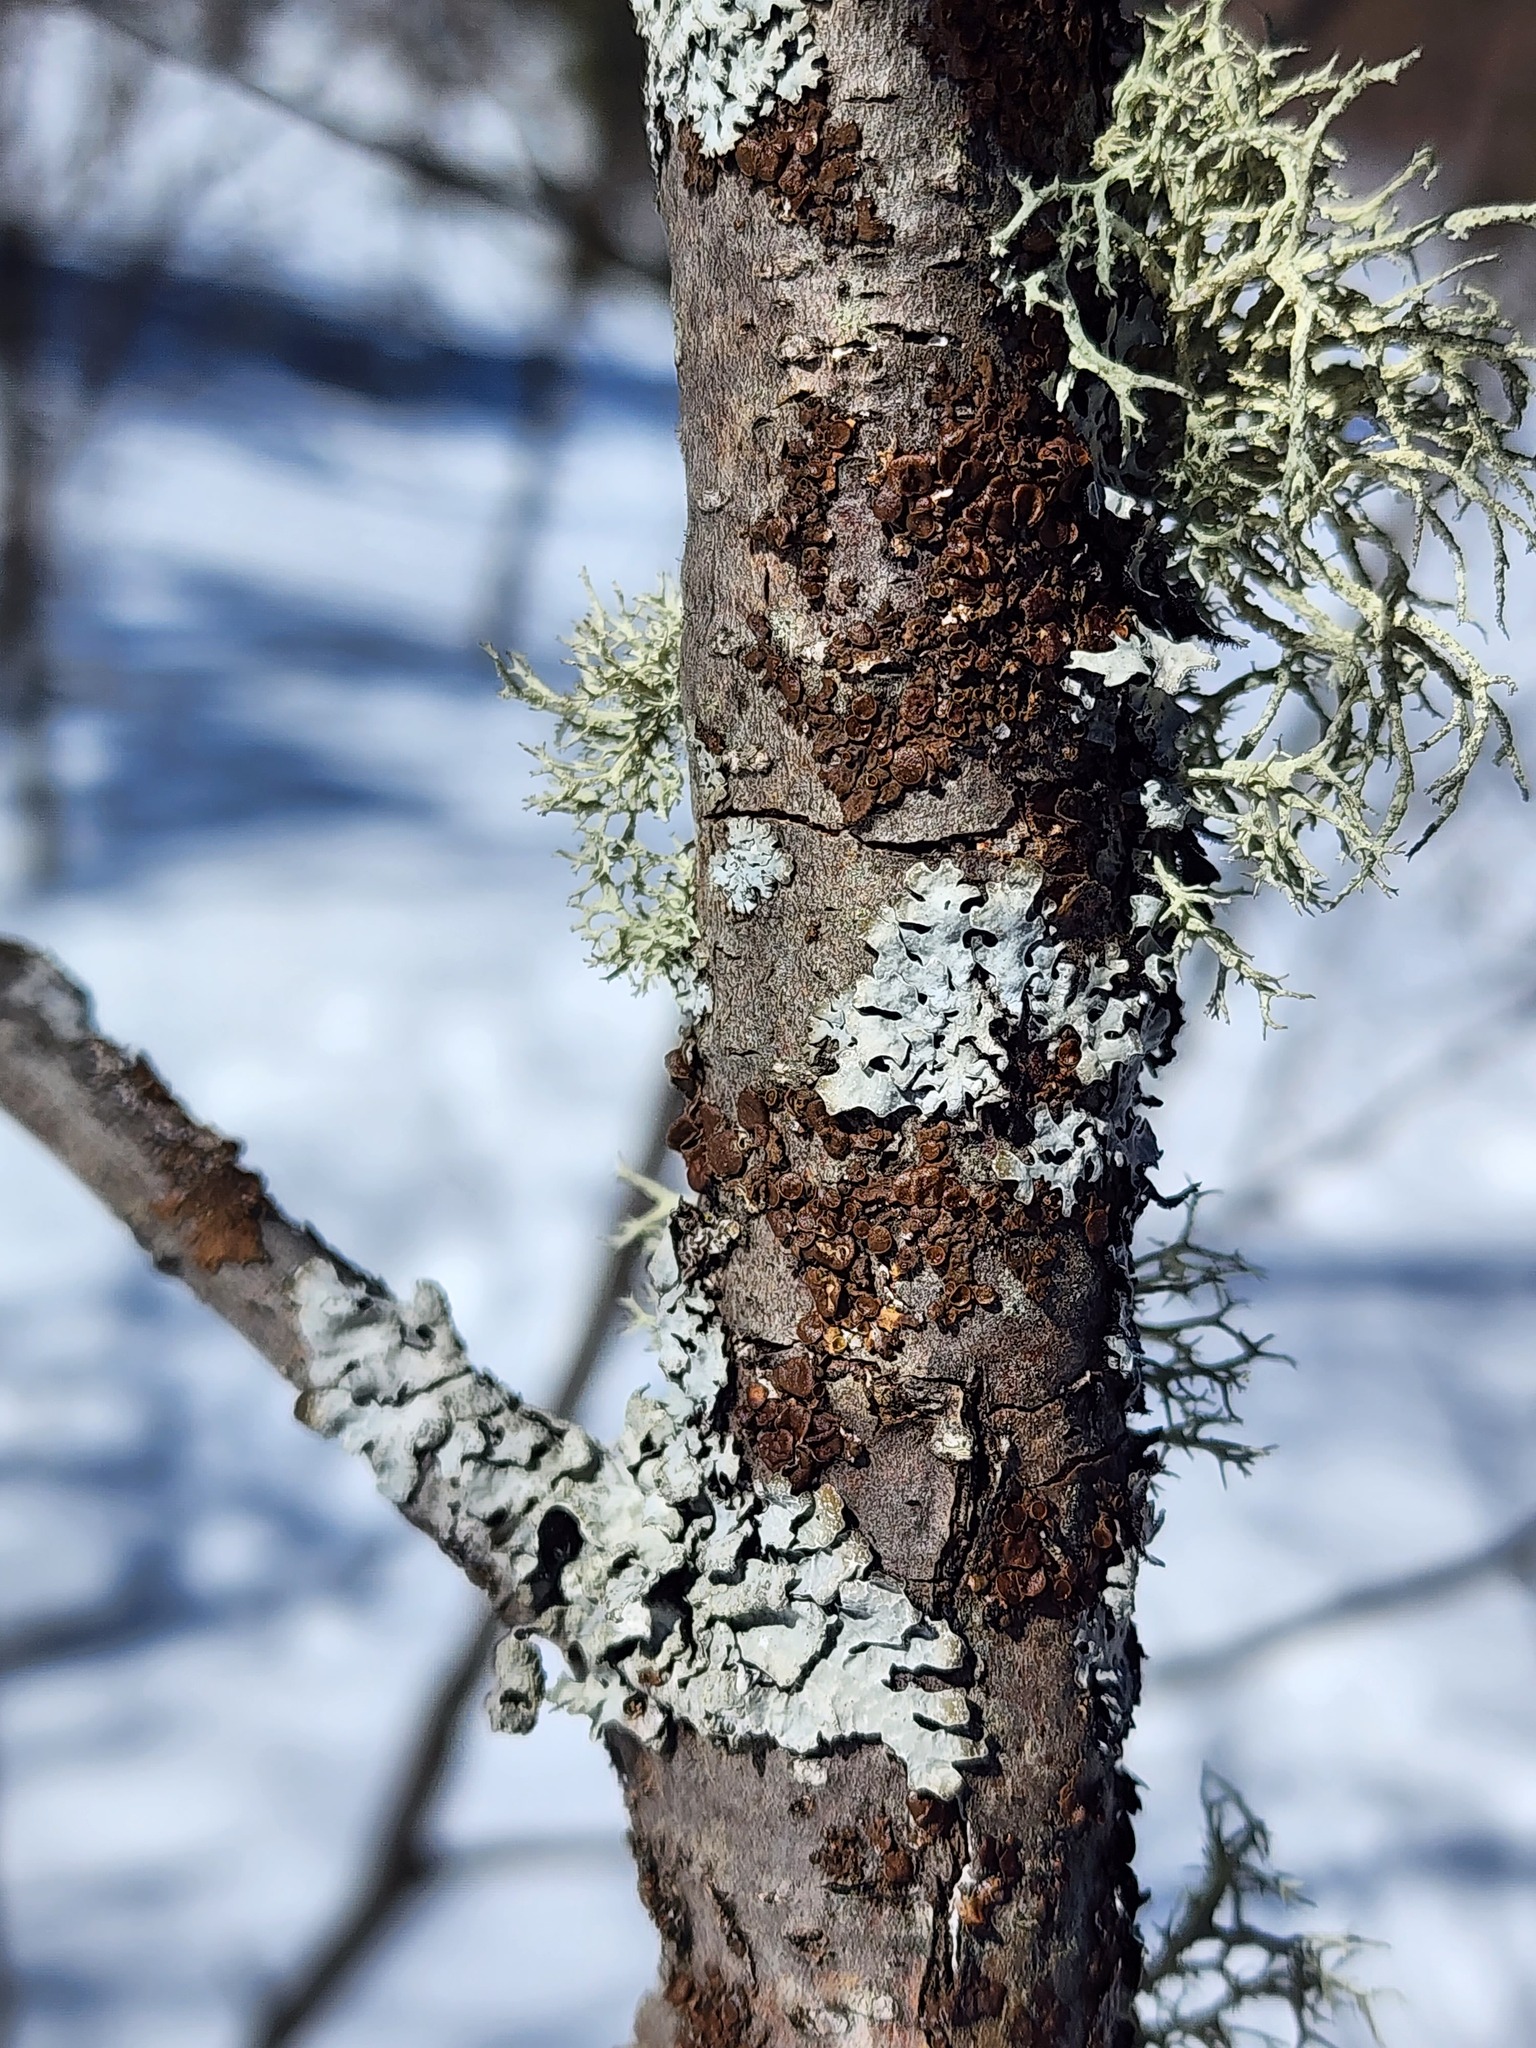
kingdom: Fungi
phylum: Ascomycota
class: Lecanoromycetes
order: Lecanorales
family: Parmeliaceae
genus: Melanohalea
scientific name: Melanohalea septentrionalis
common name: Northern camouflage lichen
